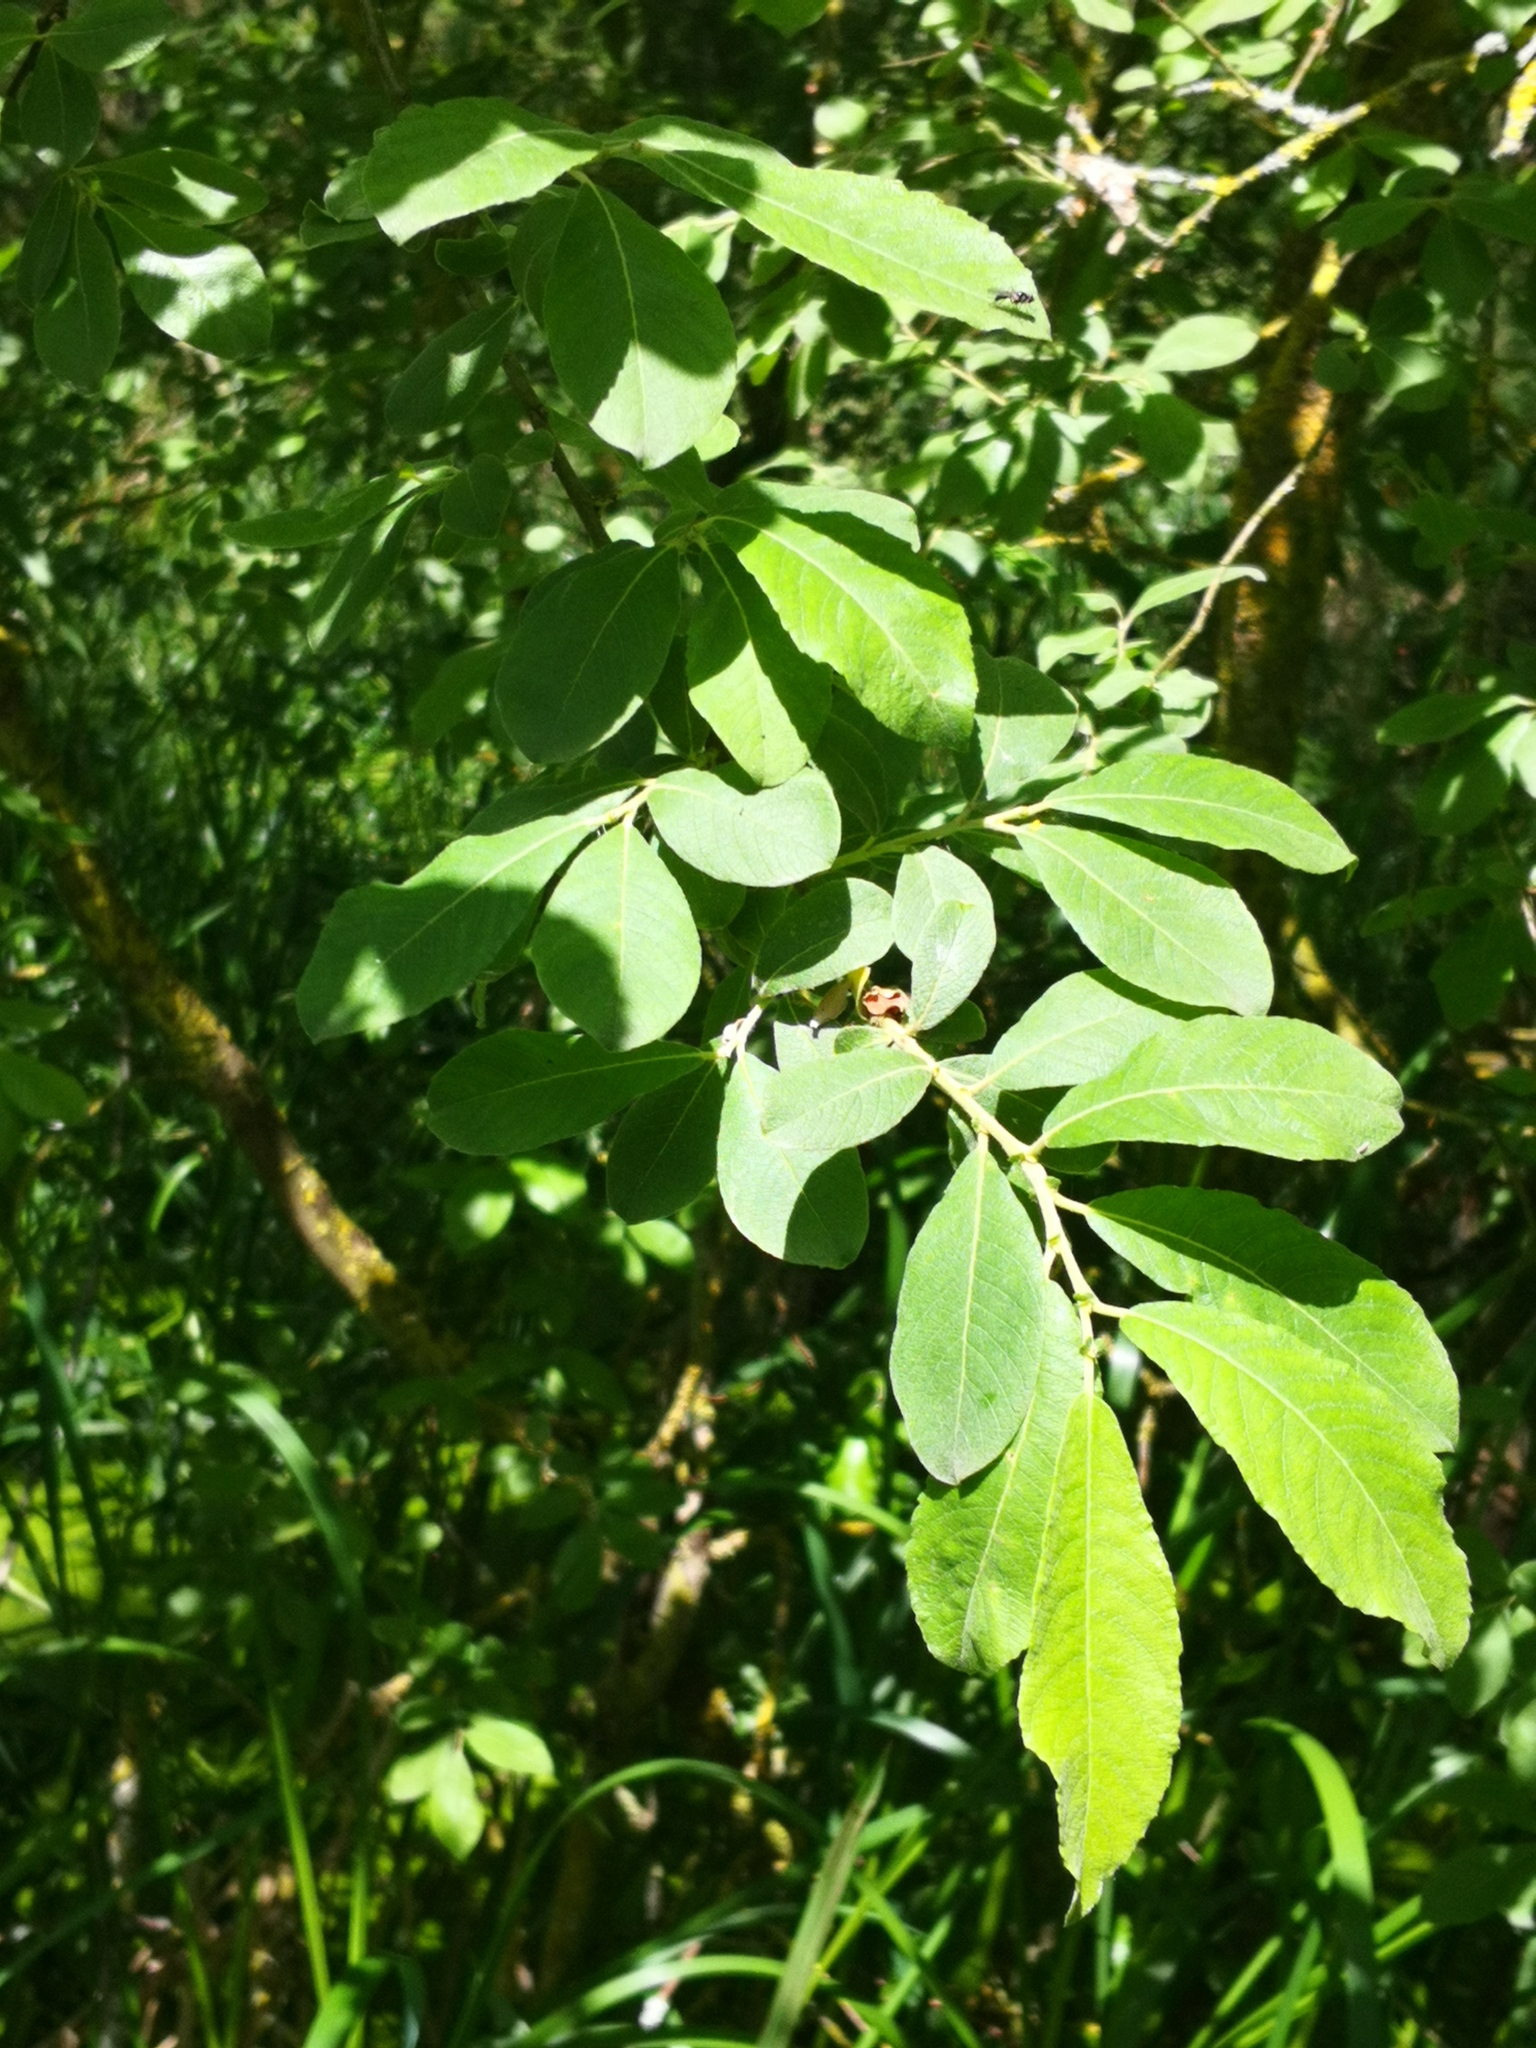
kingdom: Plantae
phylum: Tracheophyta
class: Magnoliopsida
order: Malpighiales
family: Salicaceae
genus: Salix
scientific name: Salix caprea
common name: Goat willow
